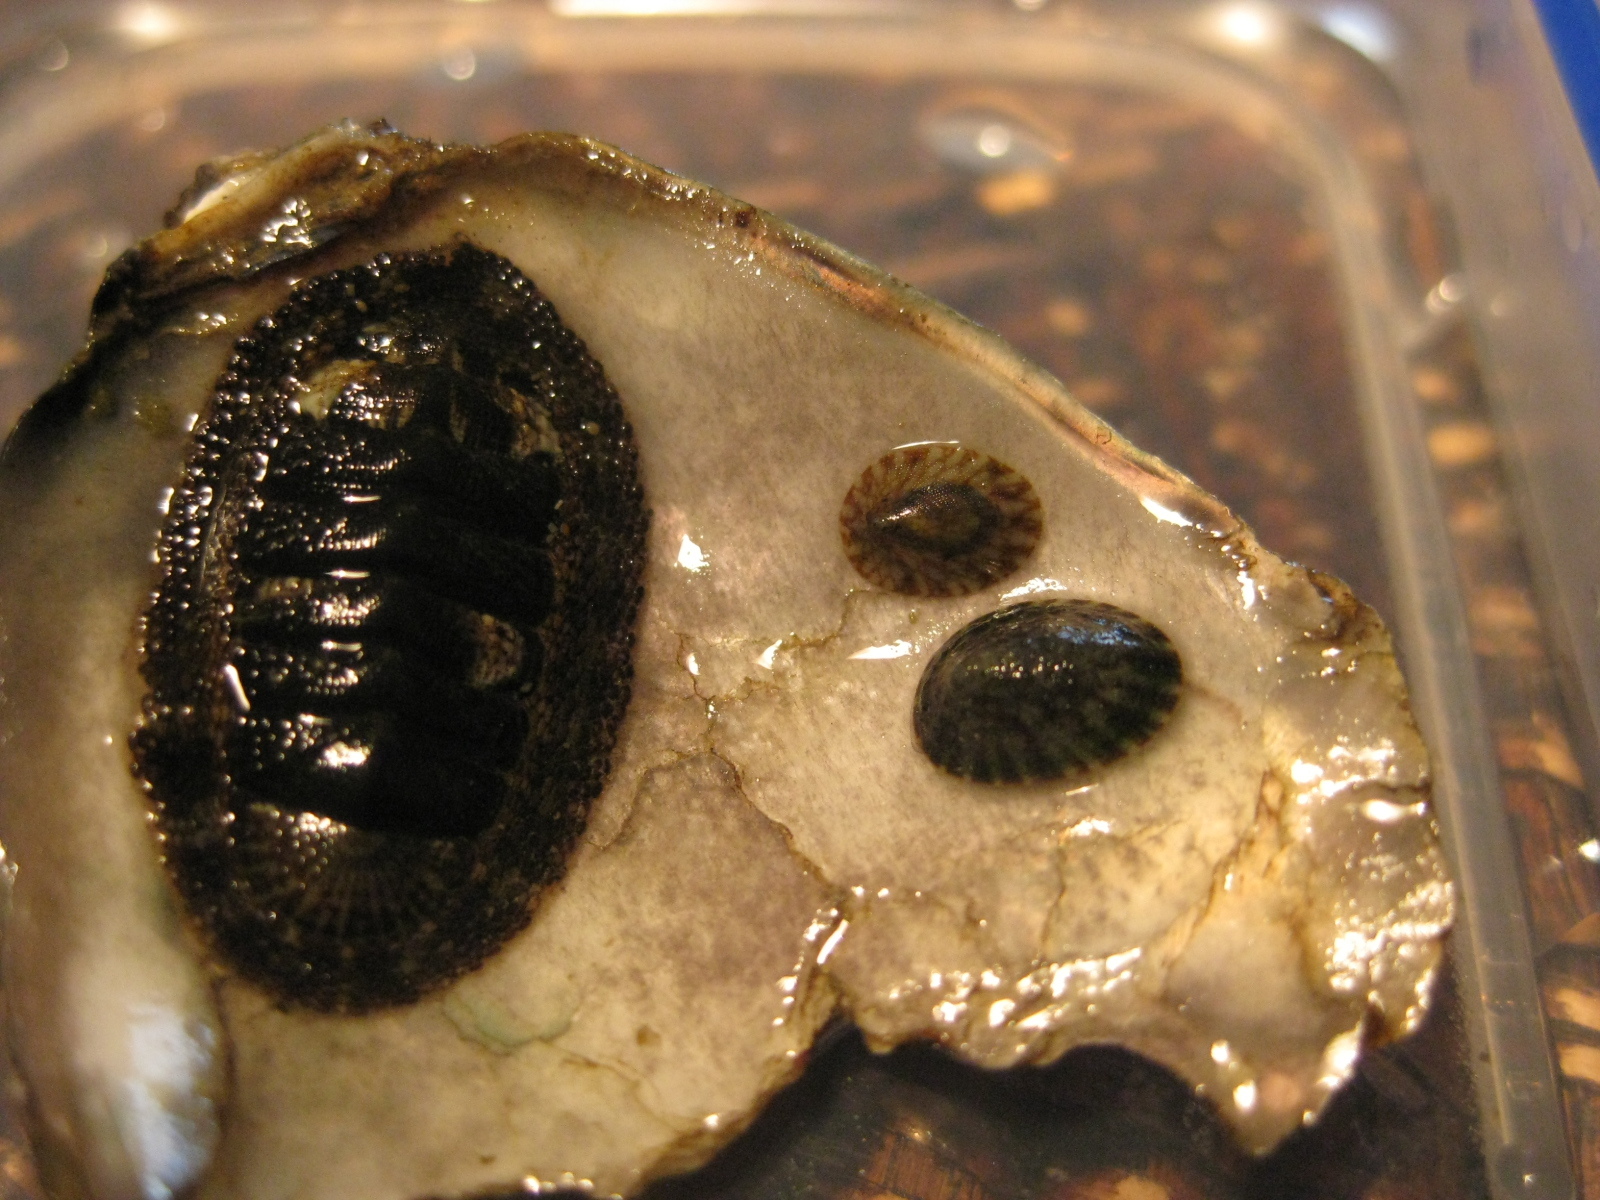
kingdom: Animalia
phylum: Mollusca
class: Gastropoda
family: Lottiidae
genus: Notoacmea
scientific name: Notoacmea
